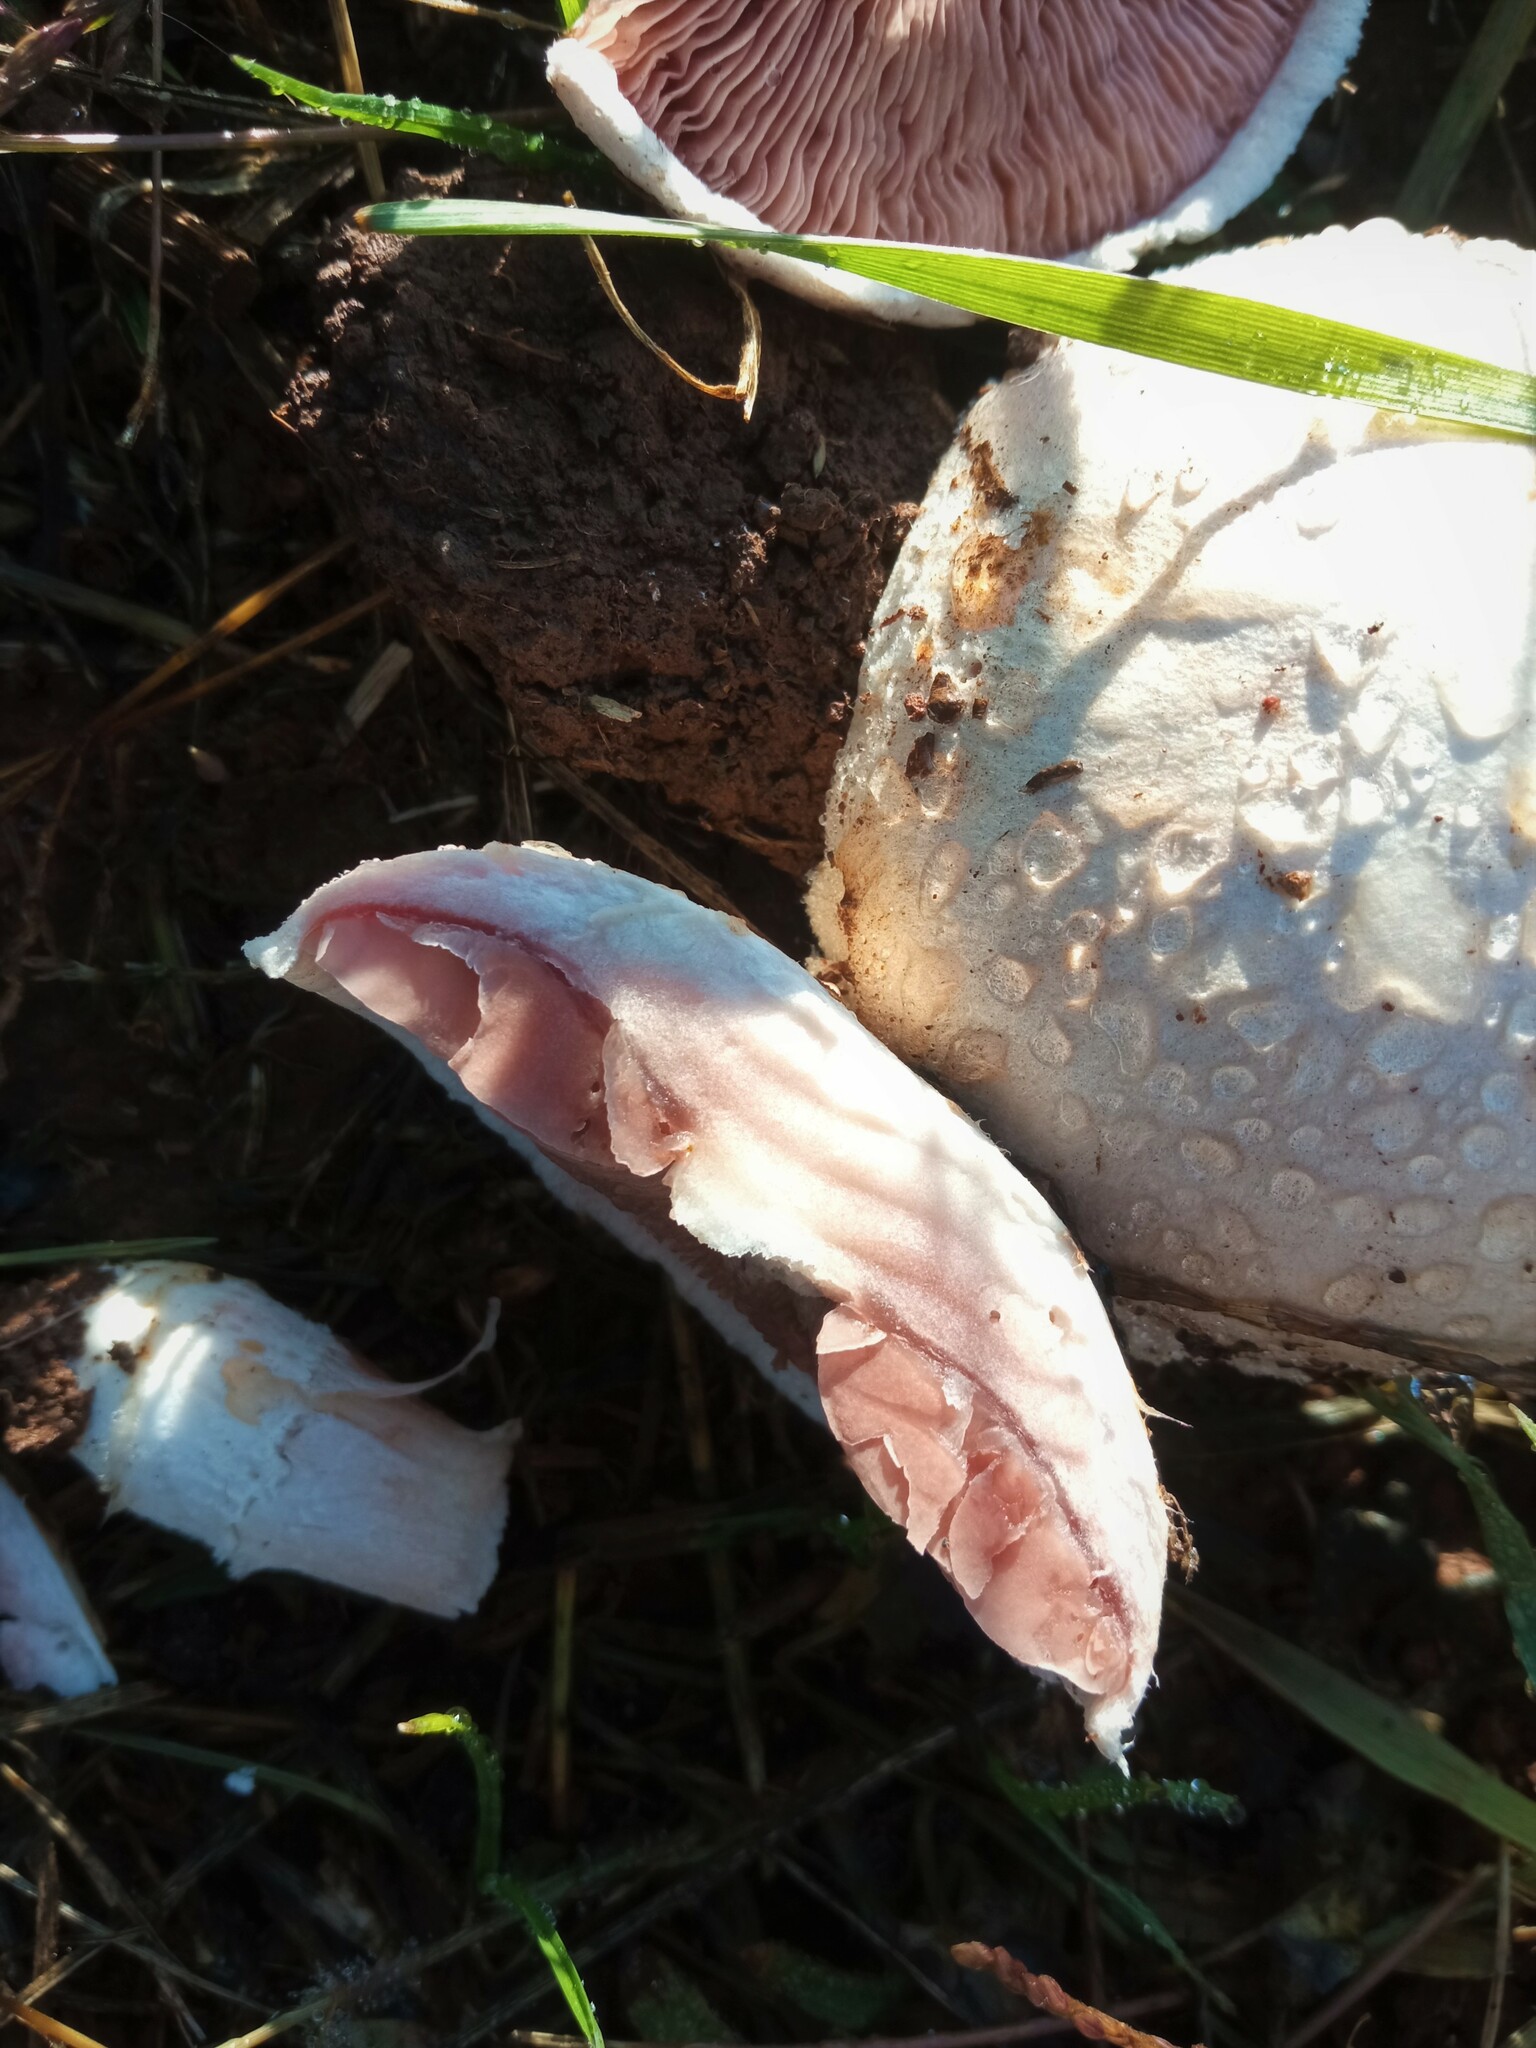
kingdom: Fungi
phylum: Basidiomycota
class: Agaricomycetes
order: Agaricales
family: Agaricaceae
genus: Agaricus
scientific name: Agaricus campestris
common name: Field mushroom
